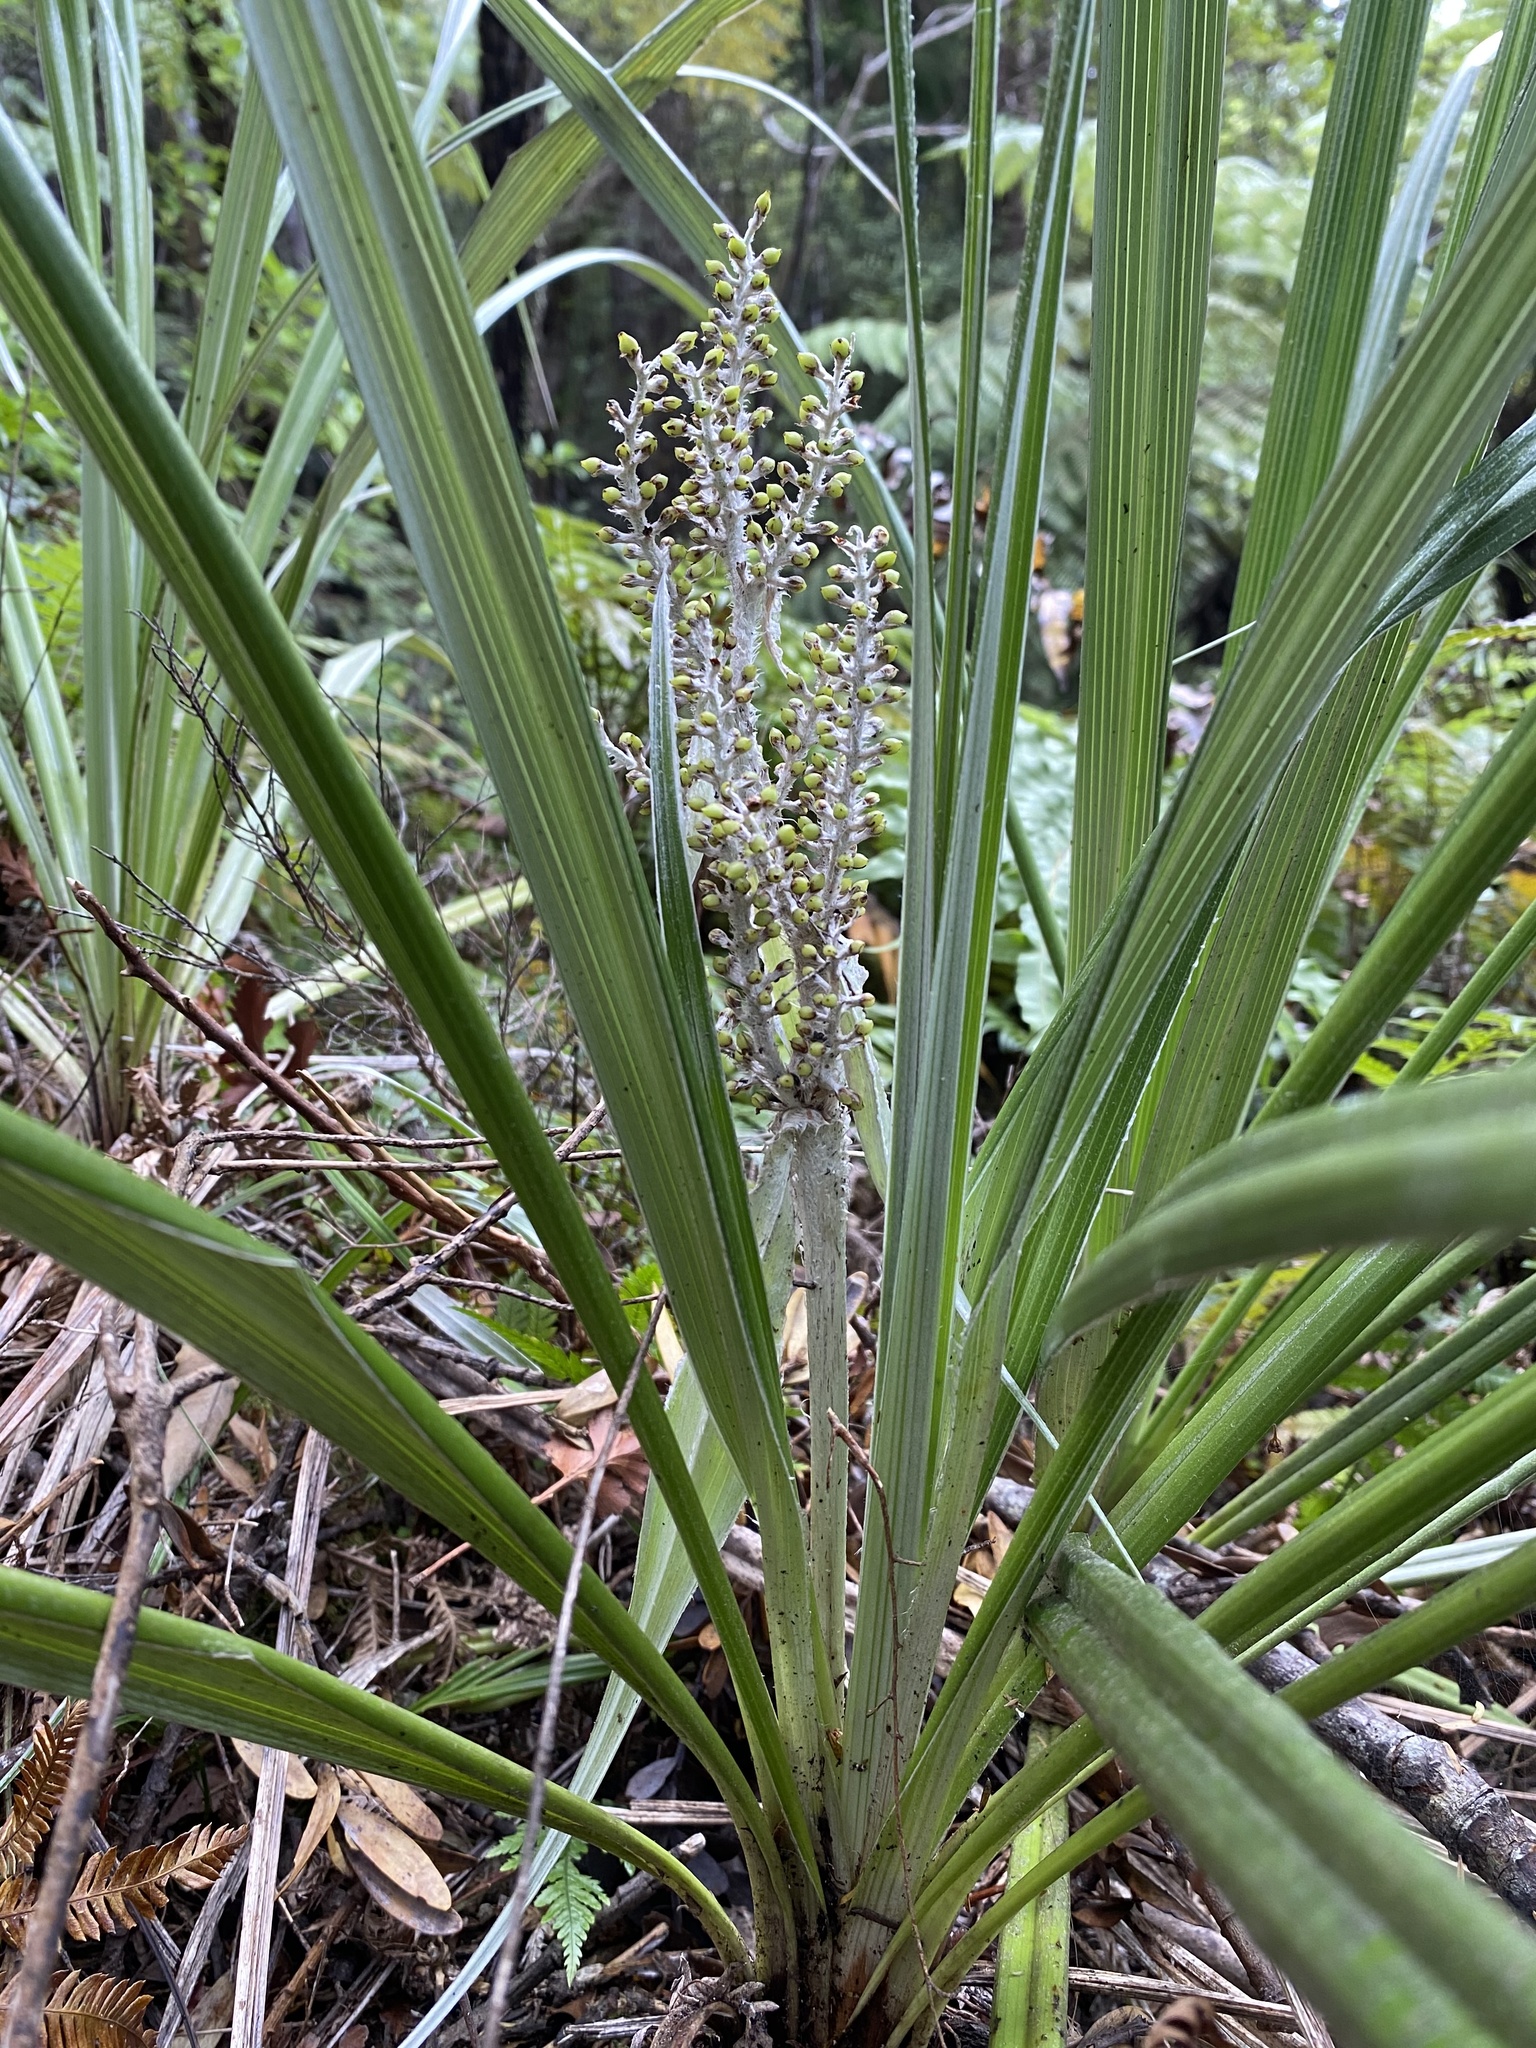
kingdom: Plantae
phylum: Tracheophyta
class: Liliopsida
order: Asparagales
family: Asteliaceae
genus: Astelia
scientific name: Astelia grandis
